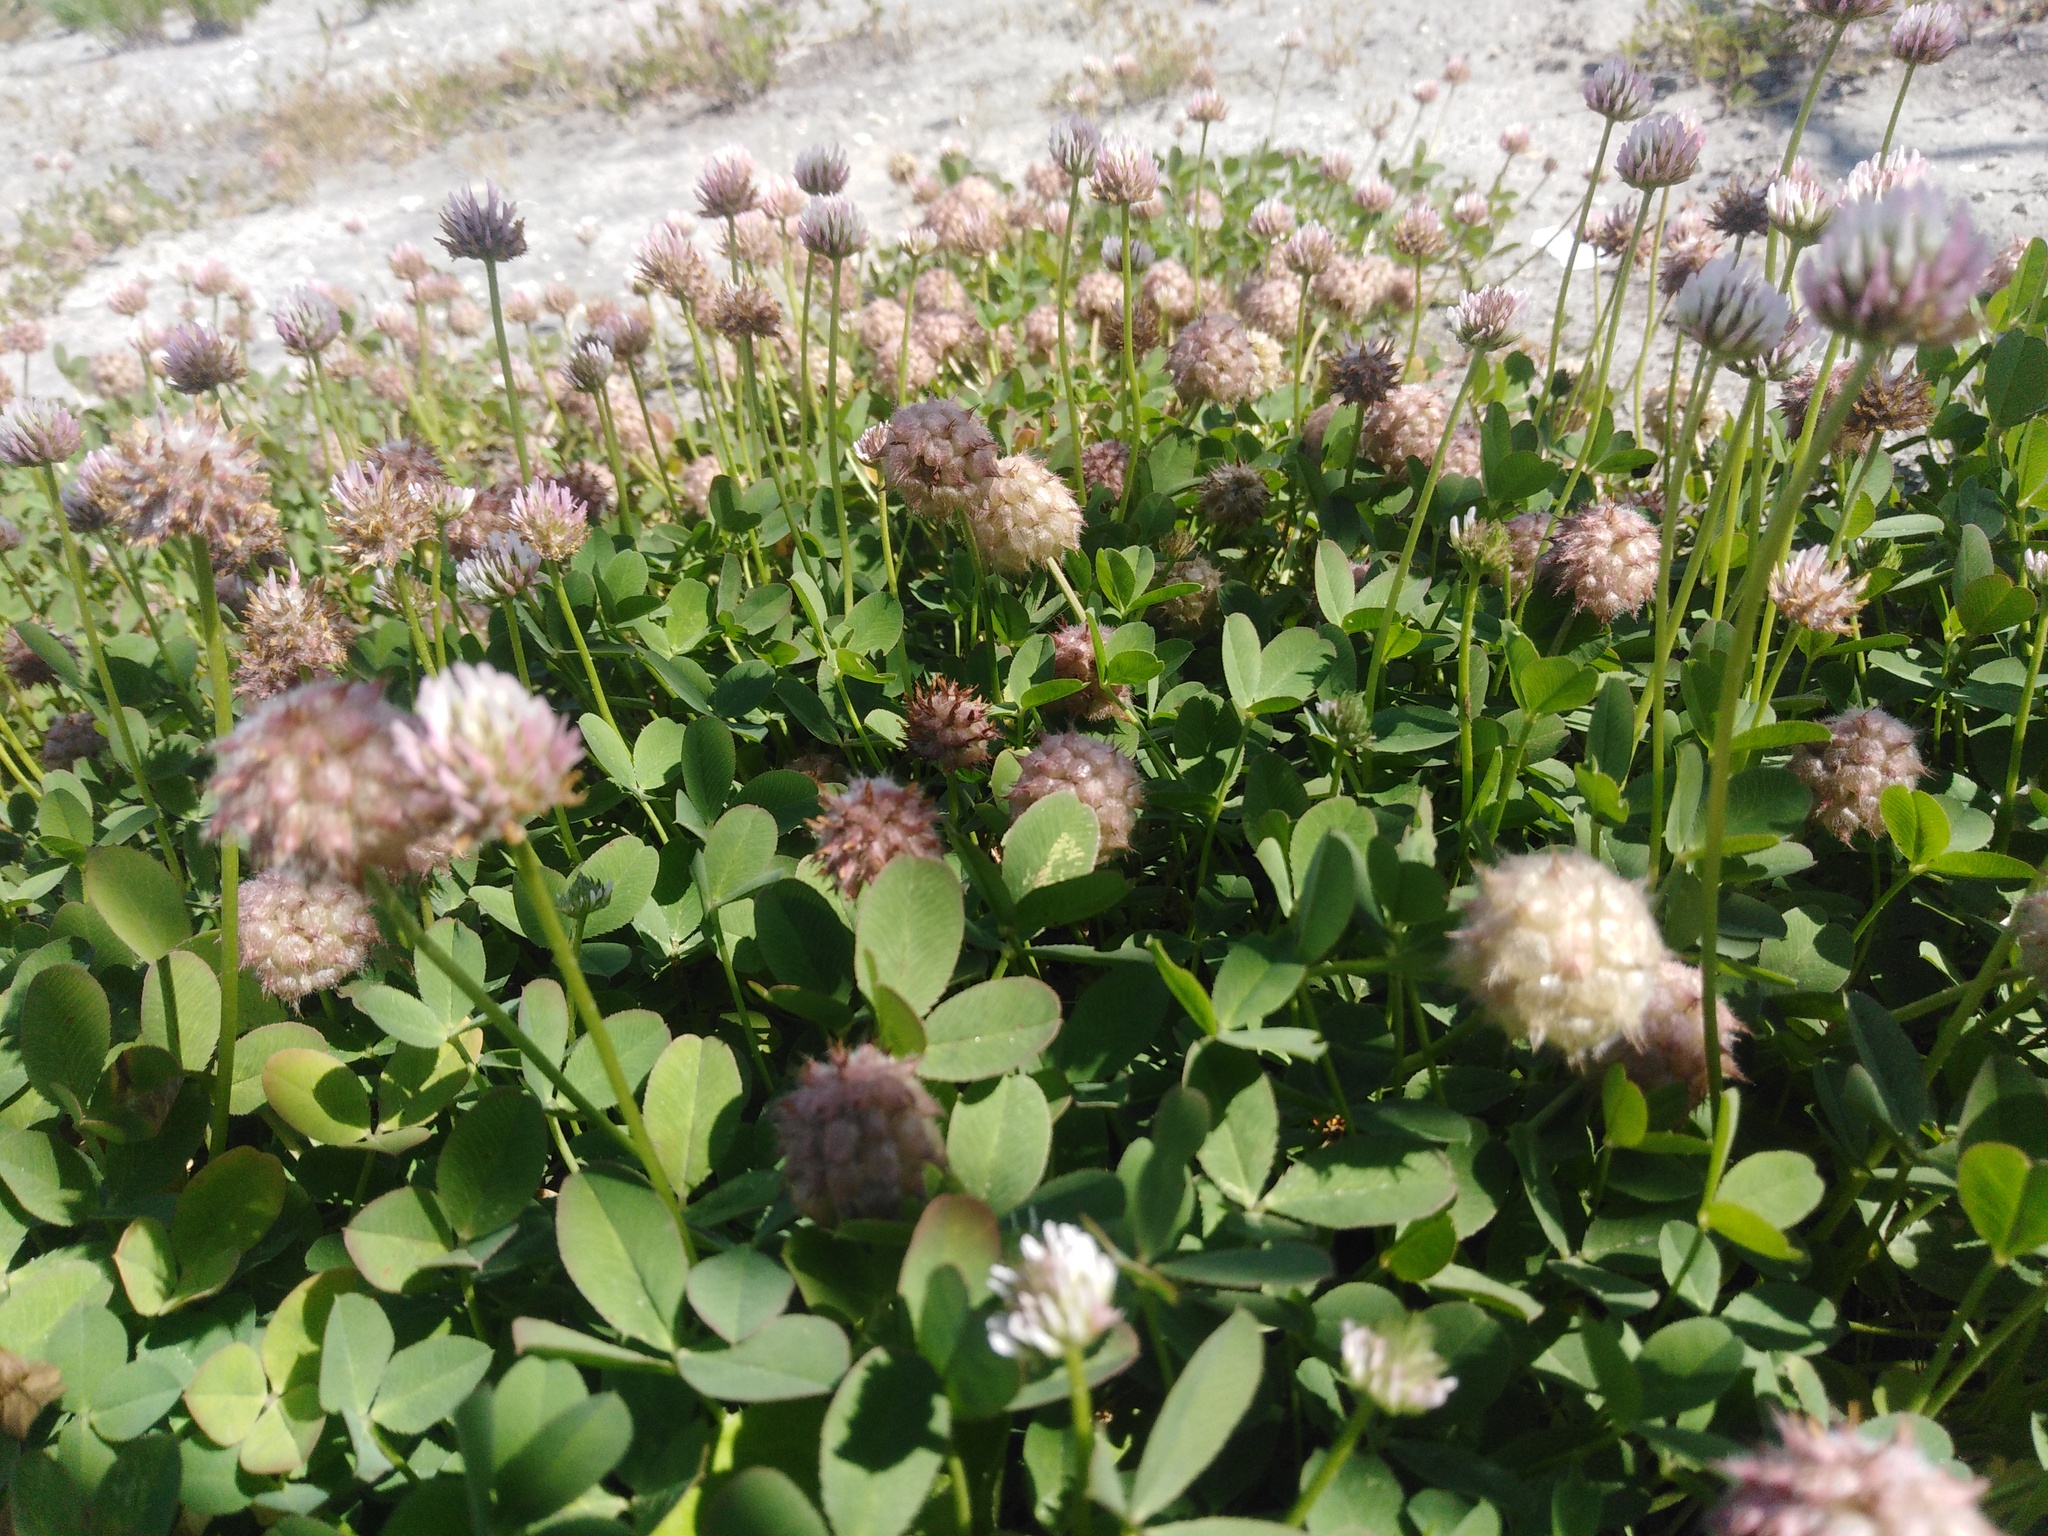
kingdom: Plantae
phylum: Tracheophyta
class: Magnoliopsida
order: Fabales
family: Fabaceae
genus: Trifolium
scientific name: Trifolium fragiferum
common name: Strawberry clover
